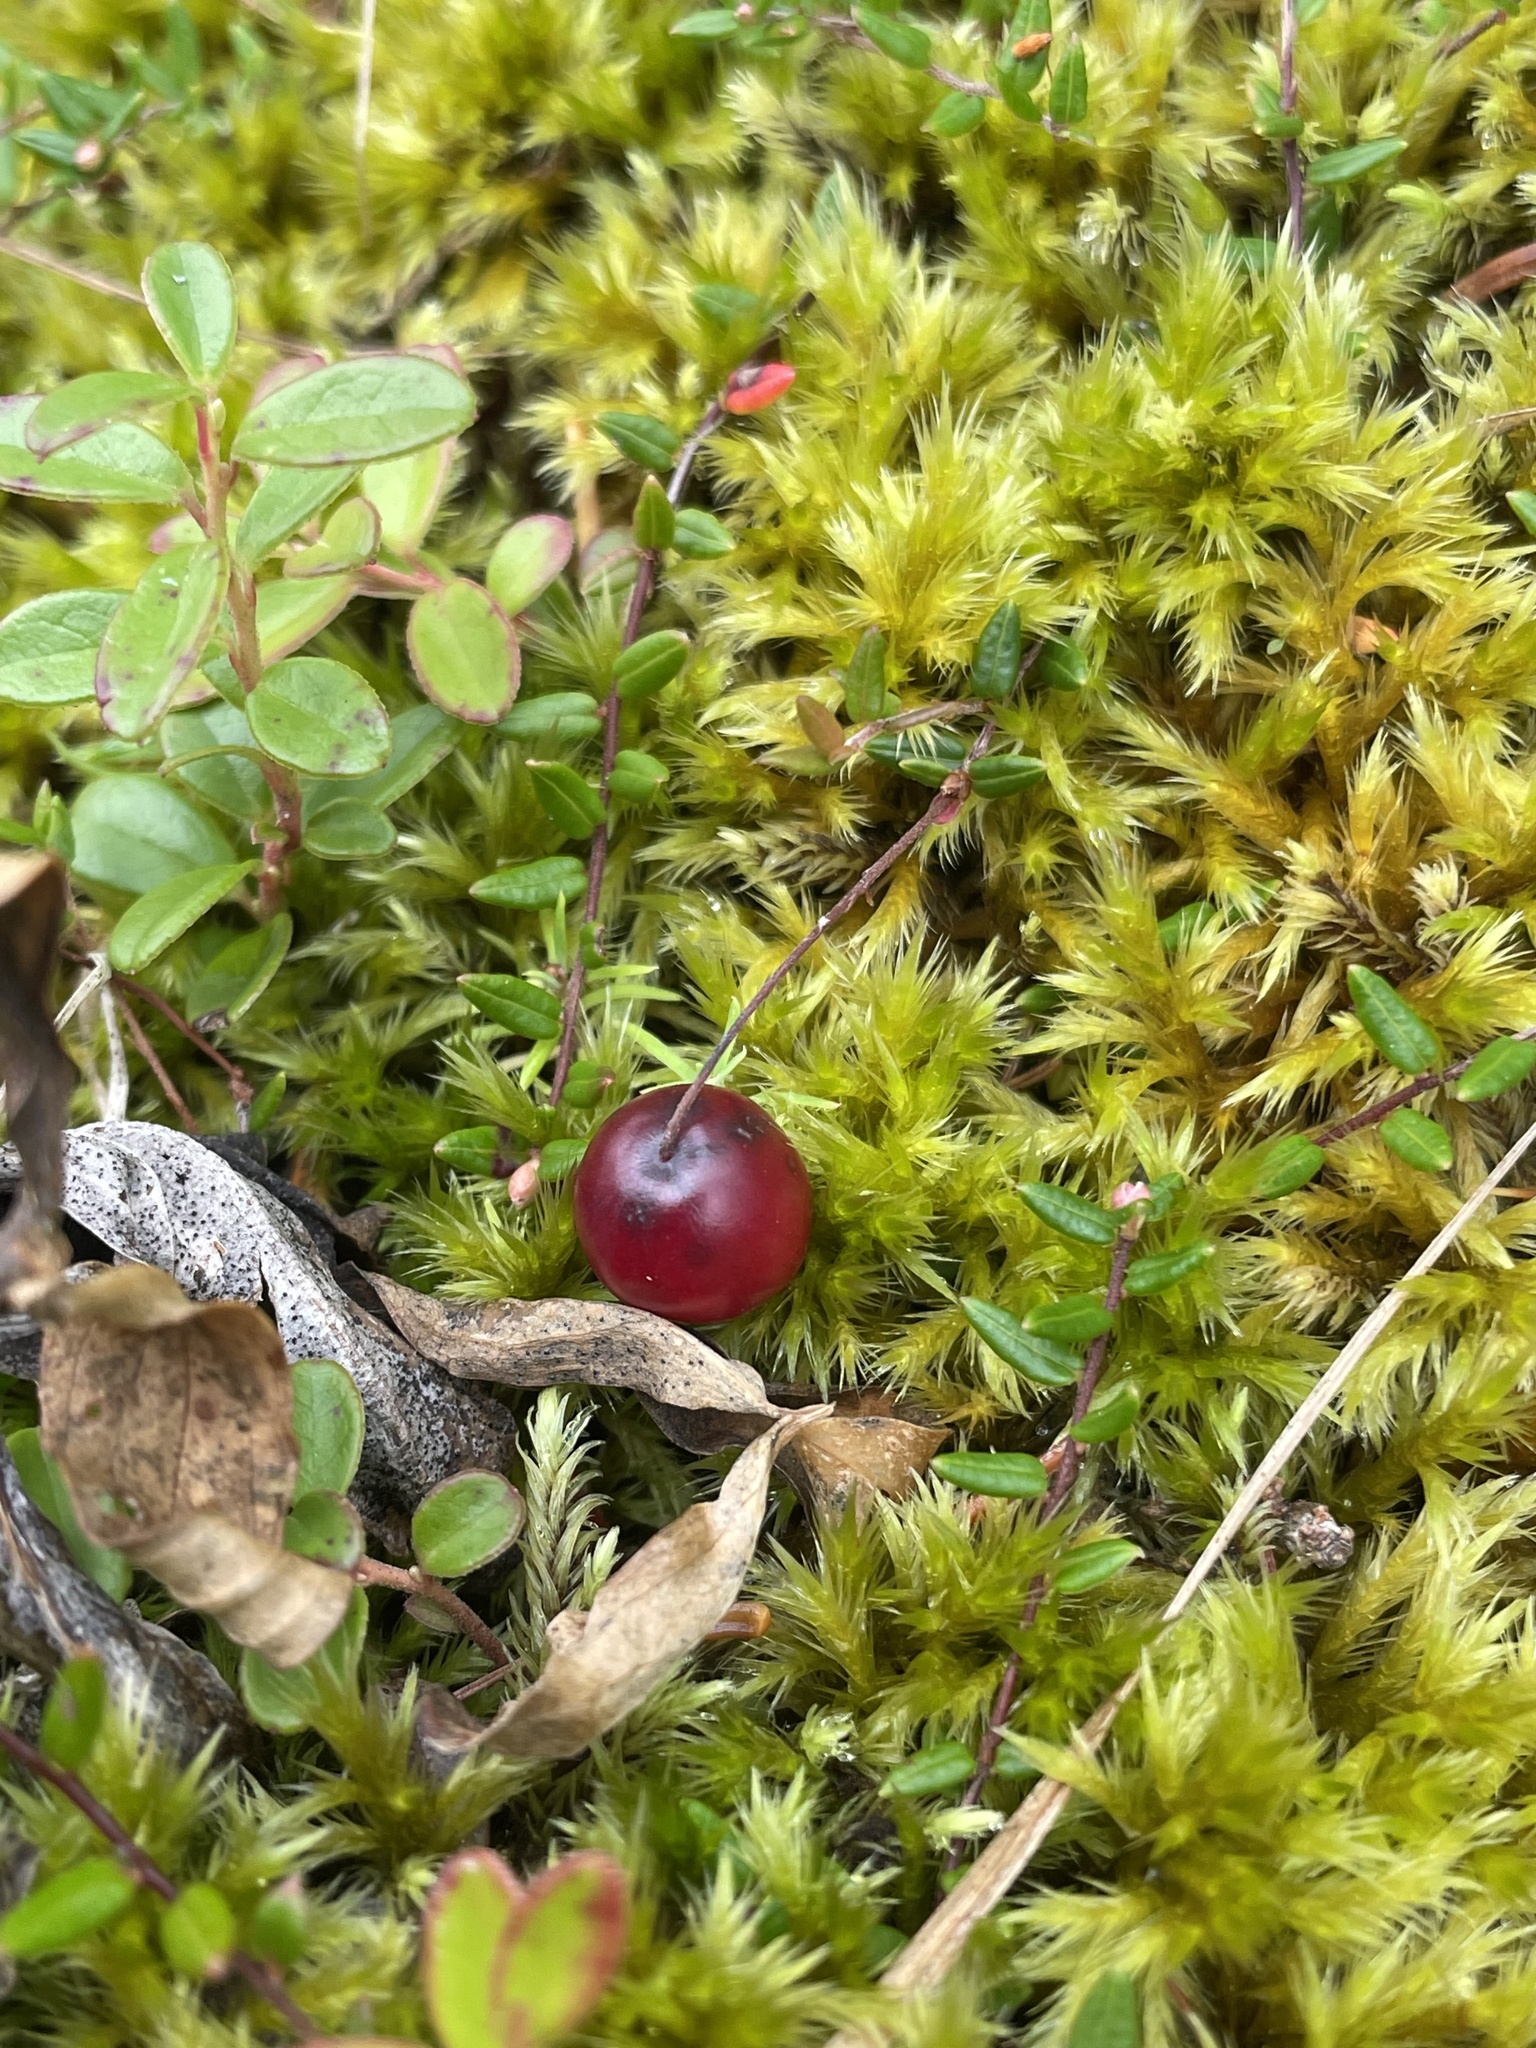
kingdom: Plantae
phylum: Tracheophyta
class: Magnoliopsida
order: Ericales
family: Ericaceae
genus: Vaccinium
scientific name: Vaccinium oxycoccos
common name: Cranberry
